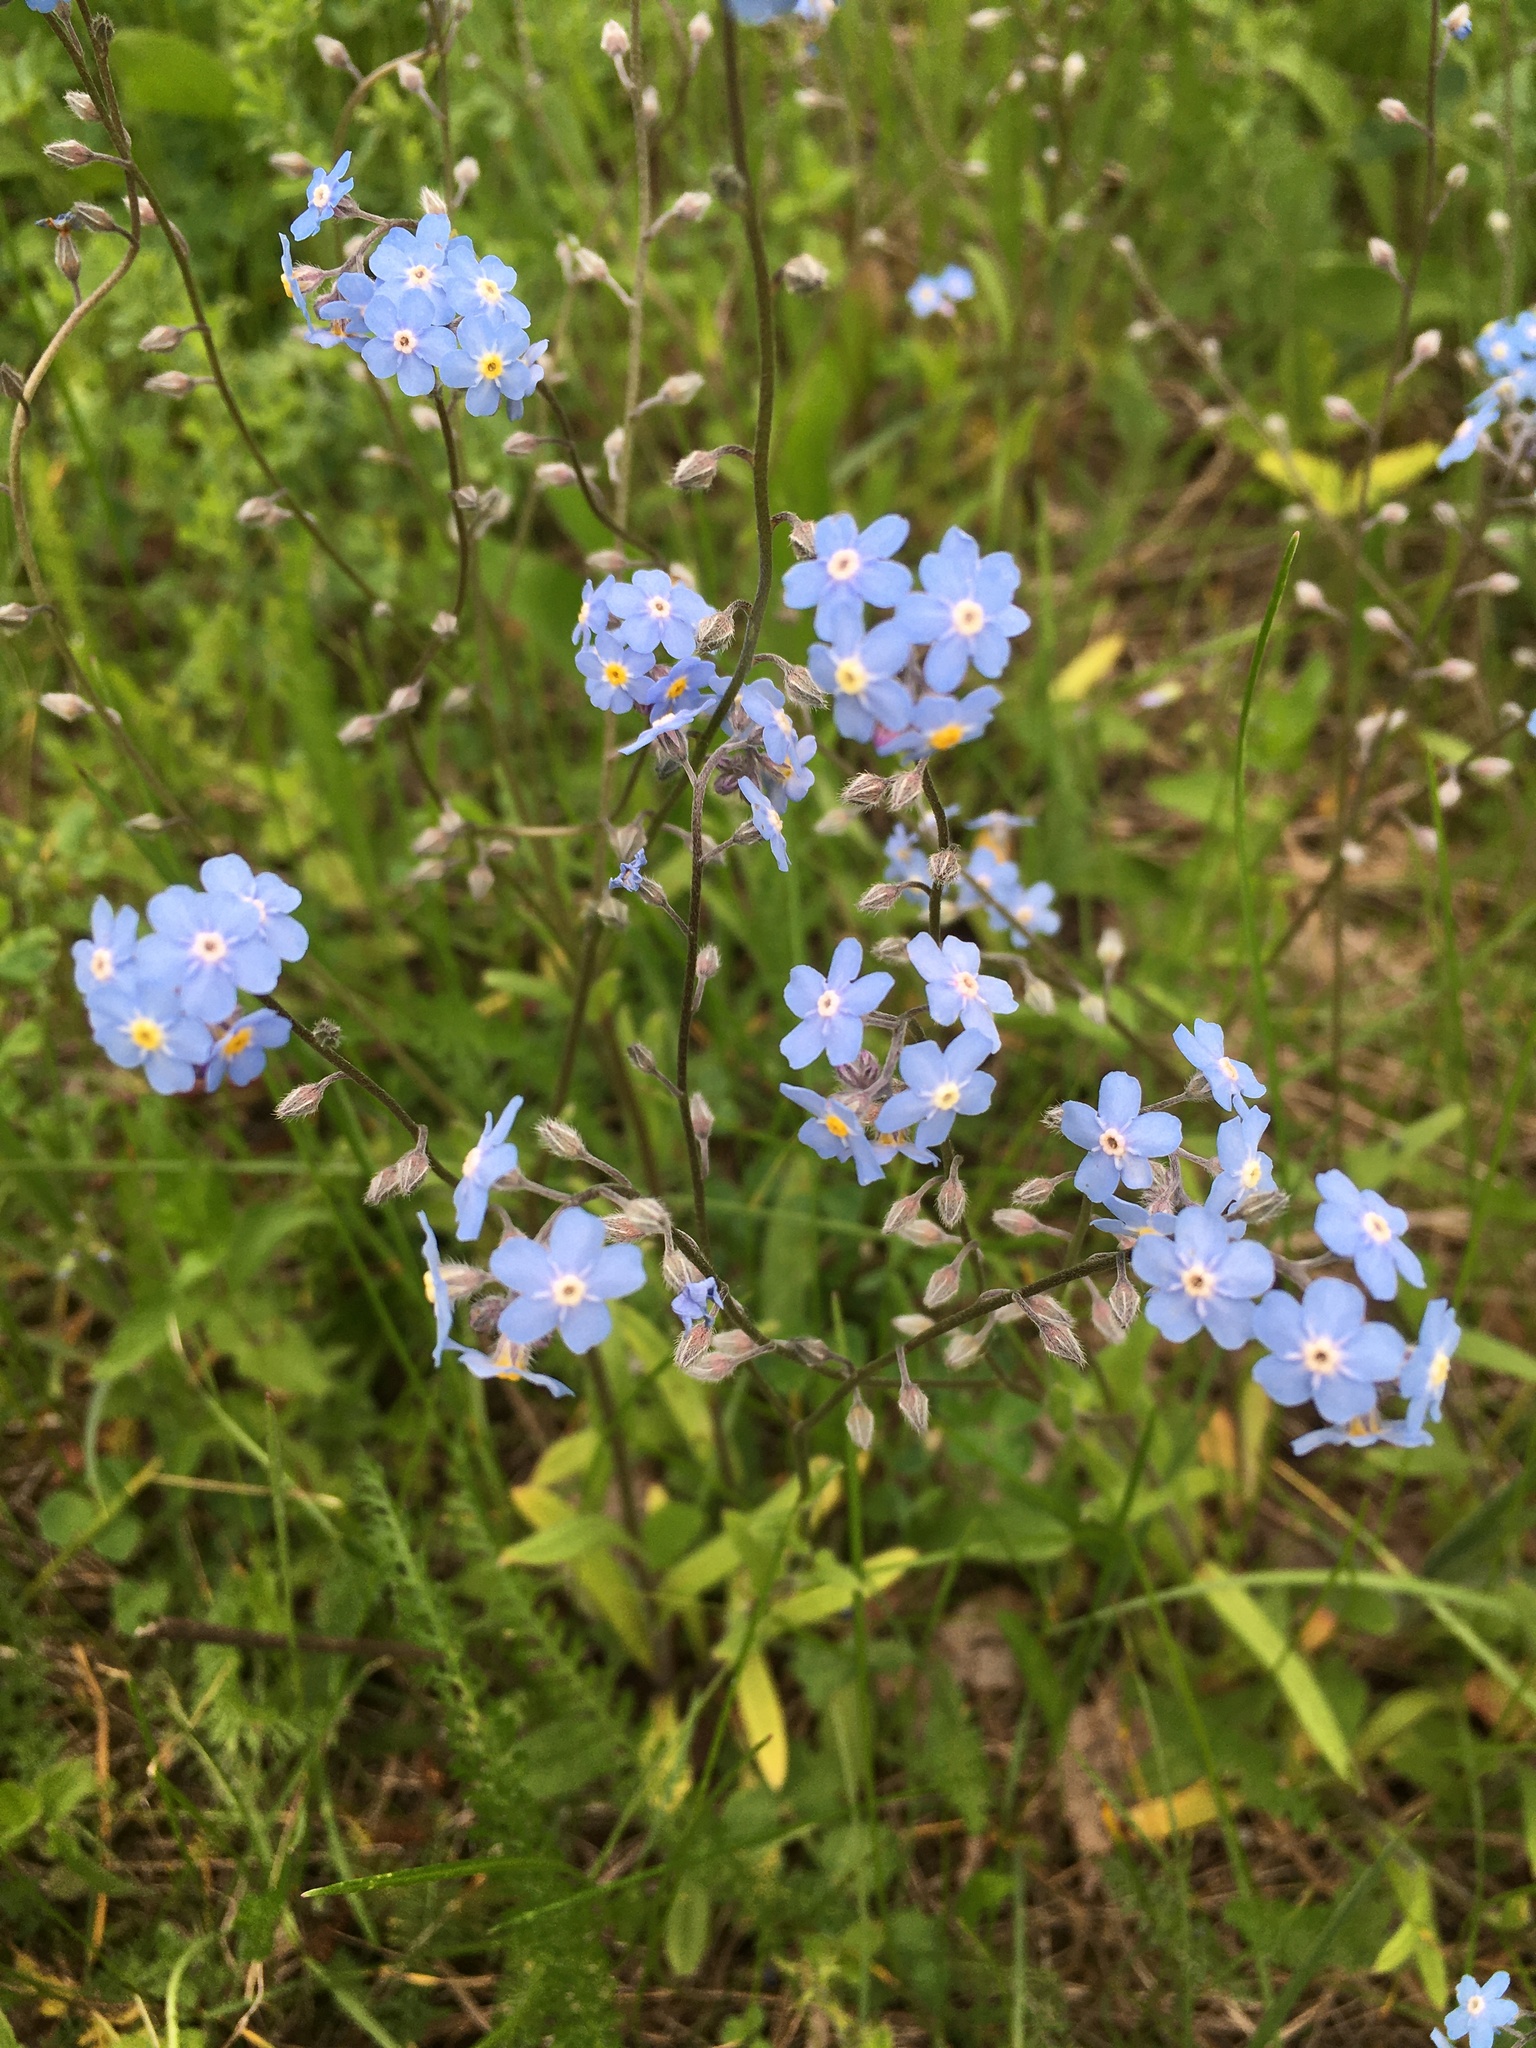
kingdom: Plantae
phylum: Tracheophyta
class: Magnoliopsida
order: Boraginales
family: Boraginaceae
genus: Myosotis
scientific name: Myosotis sylvatica
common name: Wood forget-me-not
